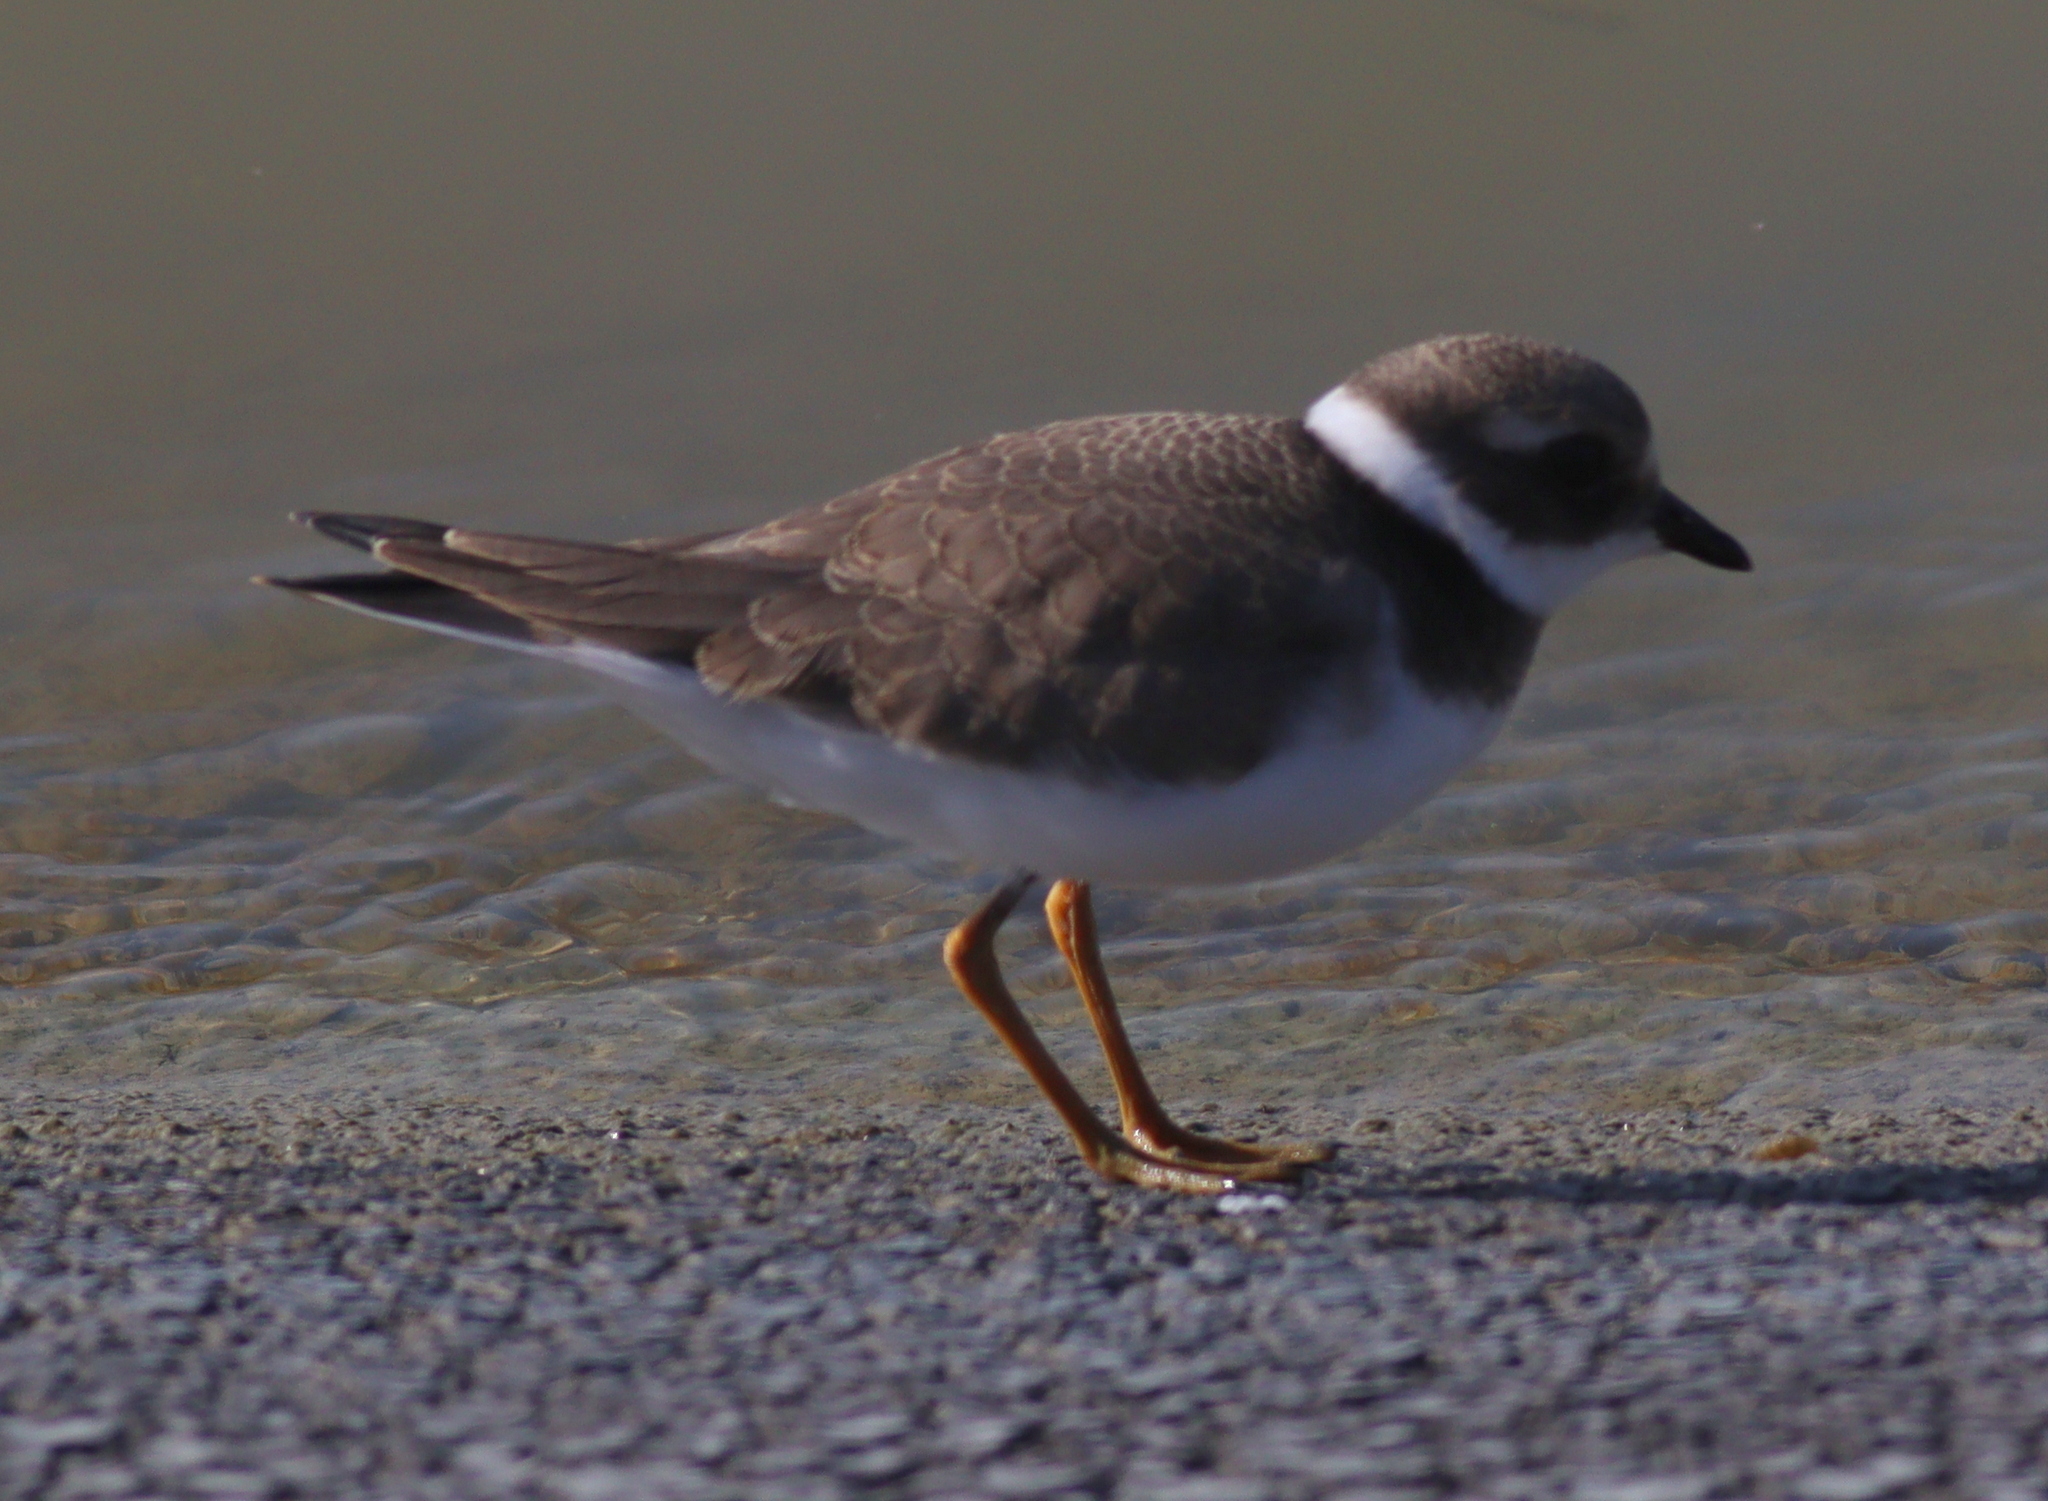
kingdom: Animalia
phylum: Chordata
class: Aves
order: Charadriiformes
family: Charadriidae
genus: Charadrius
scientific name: Charadrius hiaticula
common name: Common ringed plover
